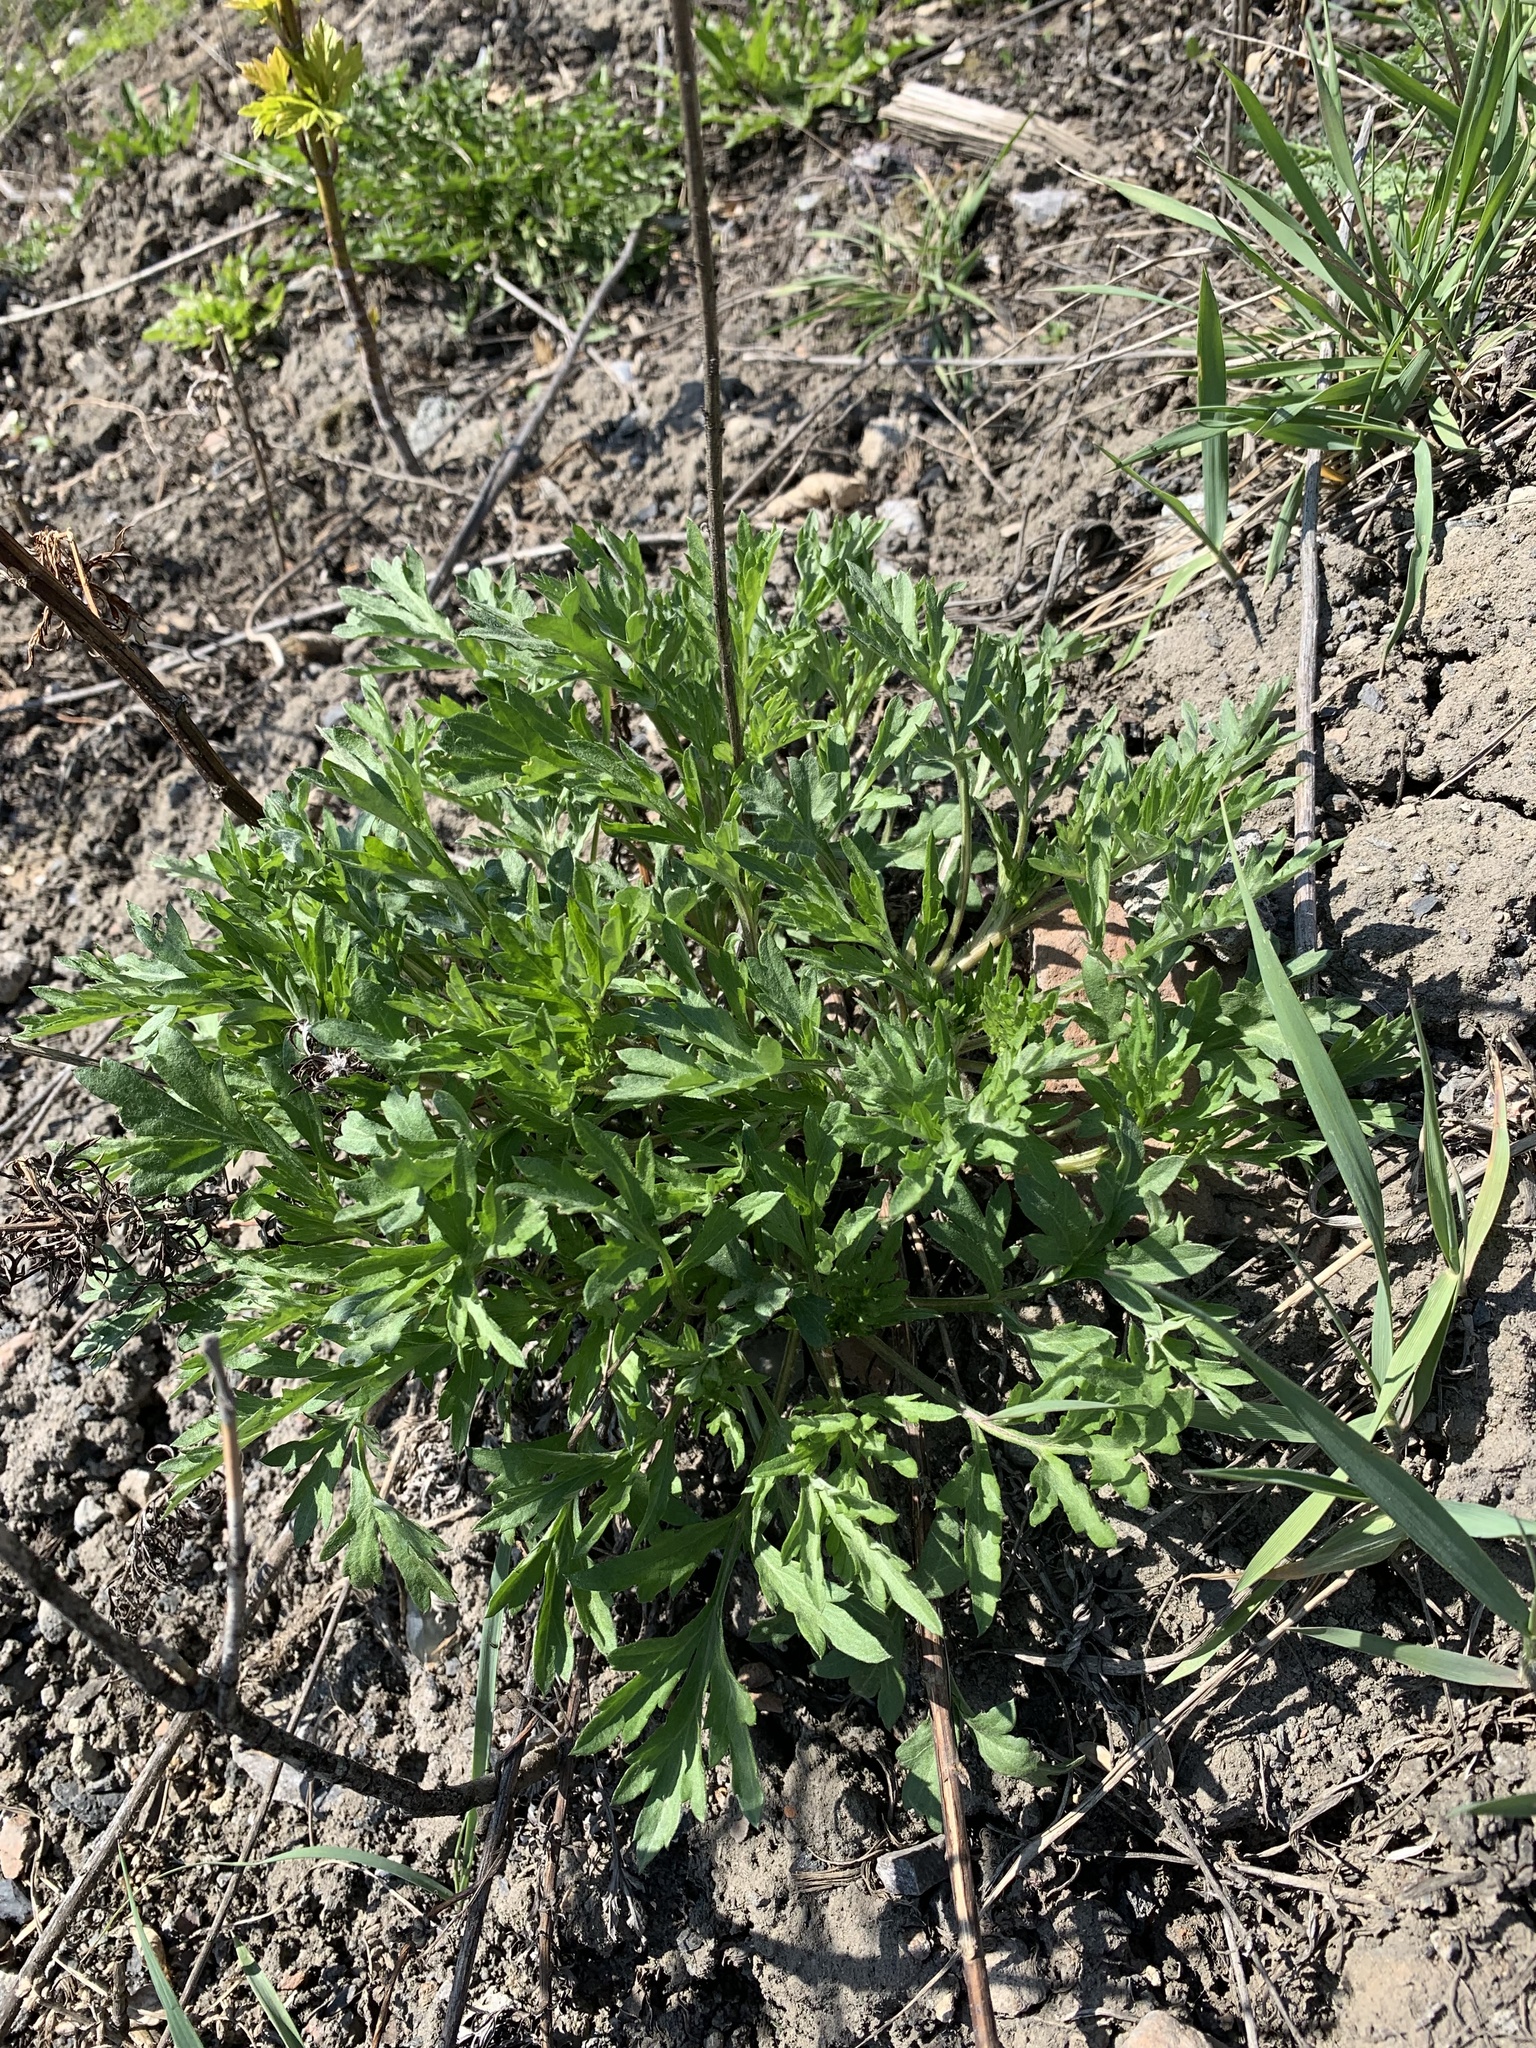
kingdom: Plantae
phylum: Tracheophyta
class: Magnoliopsida
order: Asterales
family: Asteraceae
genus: Artemisia
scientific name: Artemisia vulgaris
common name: Mugwort
